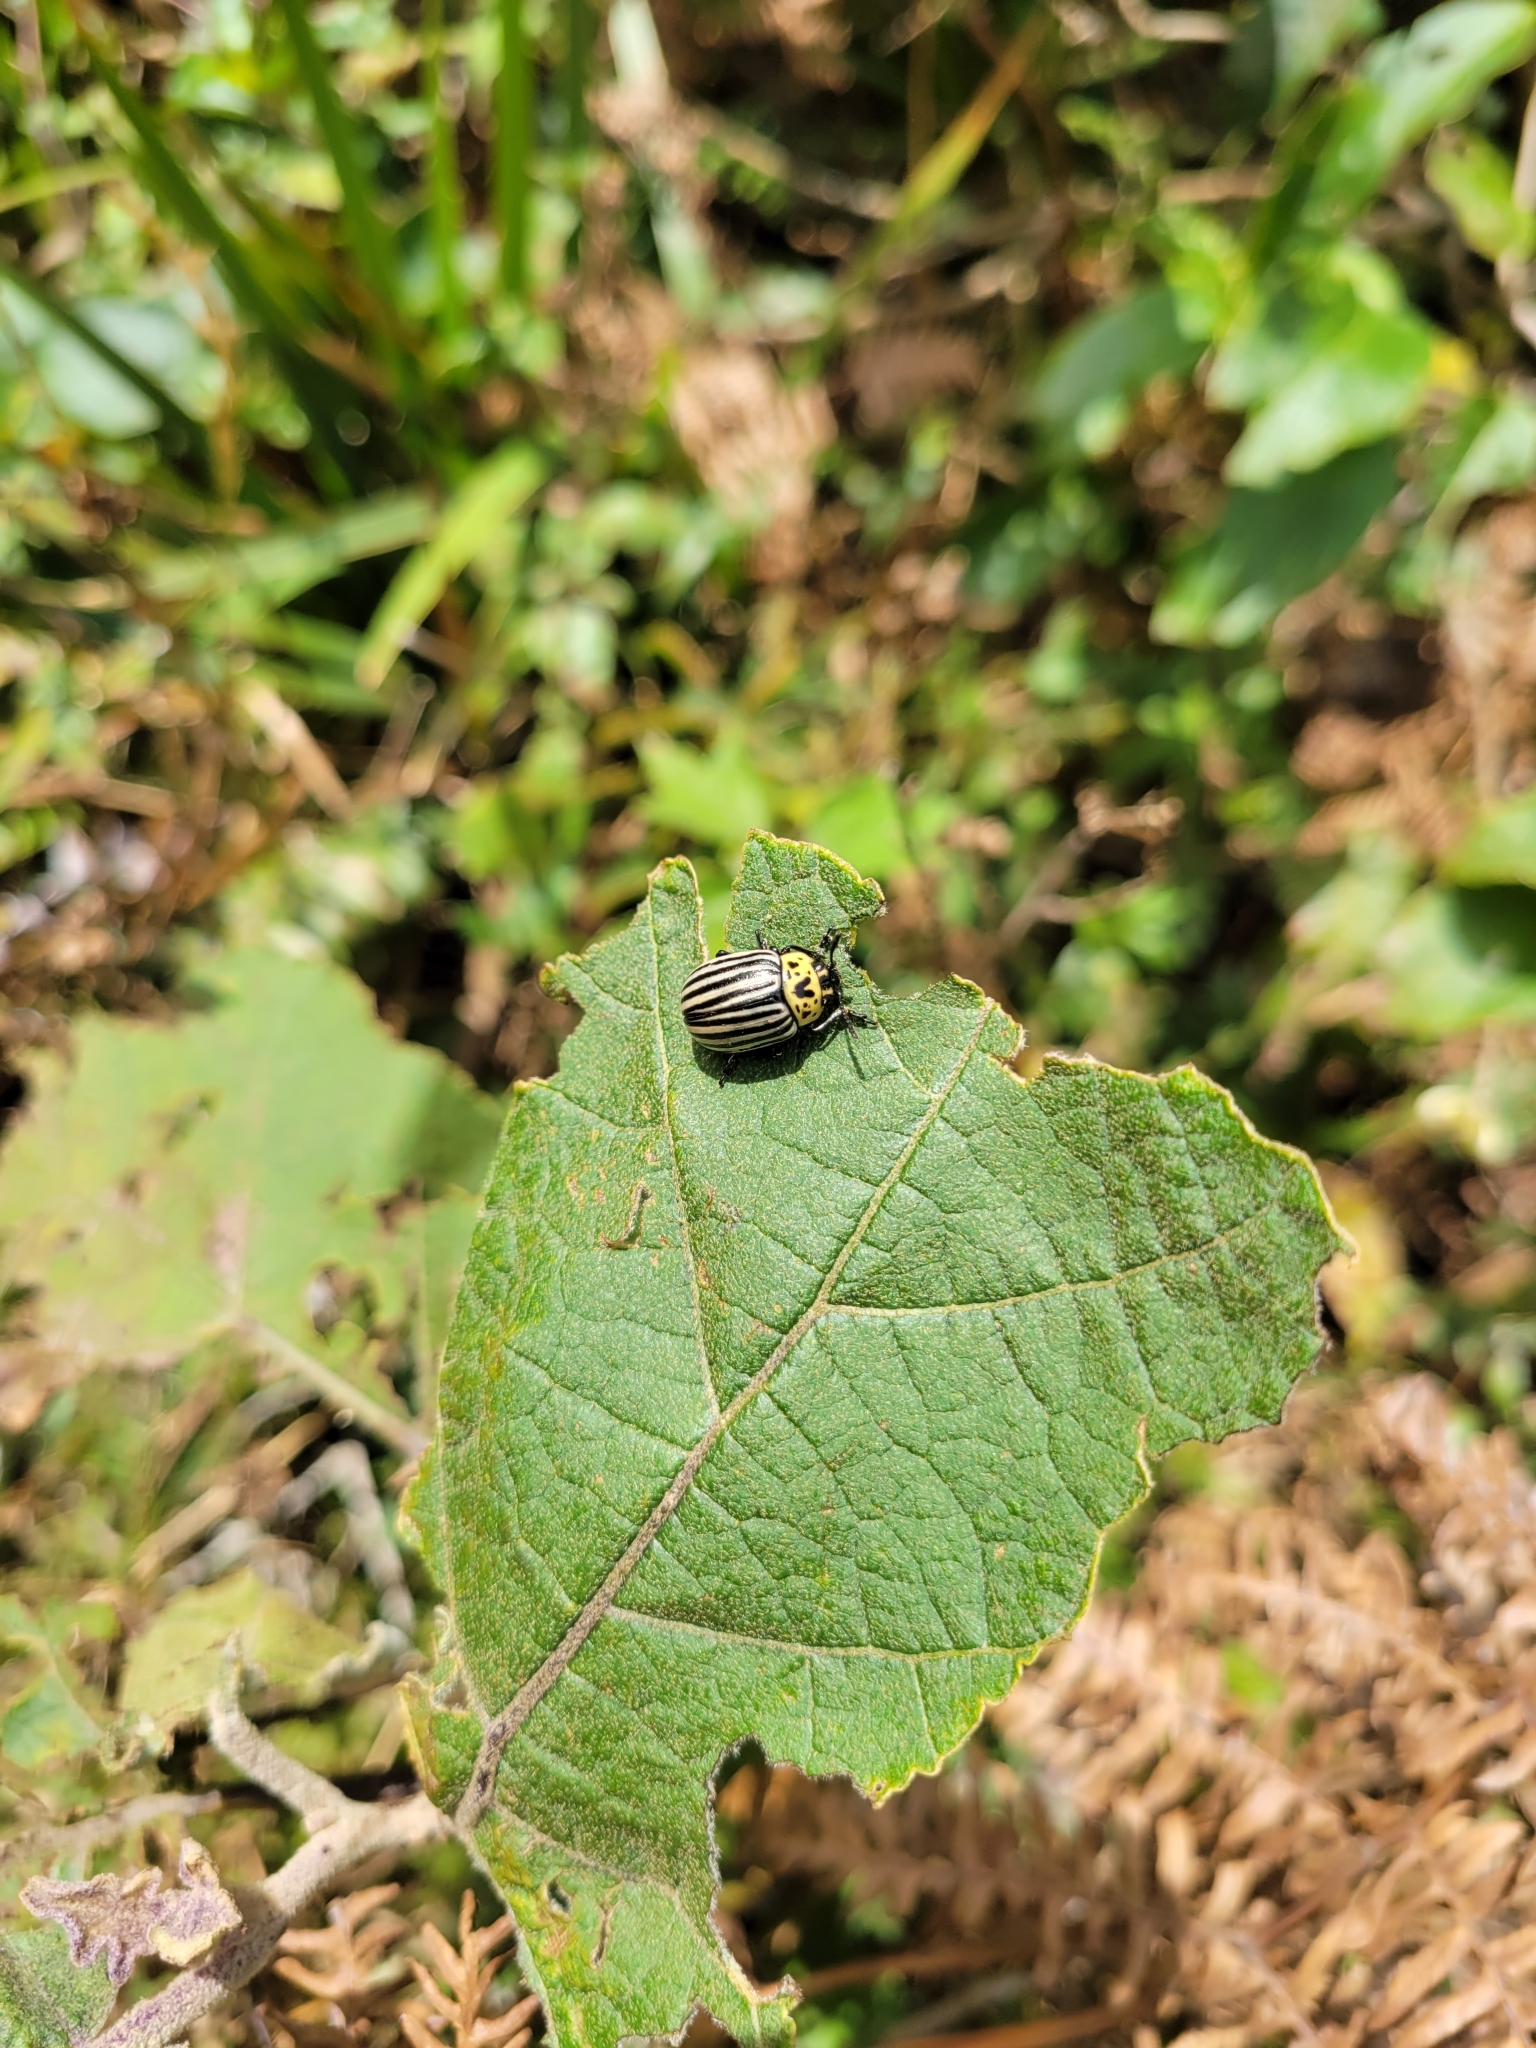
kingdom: Animalia
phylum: Arthropoda
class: Insecta
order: Coleoptera
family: Chrysomelidae
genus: Leptinotarsa
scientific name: Leptinotarsa
